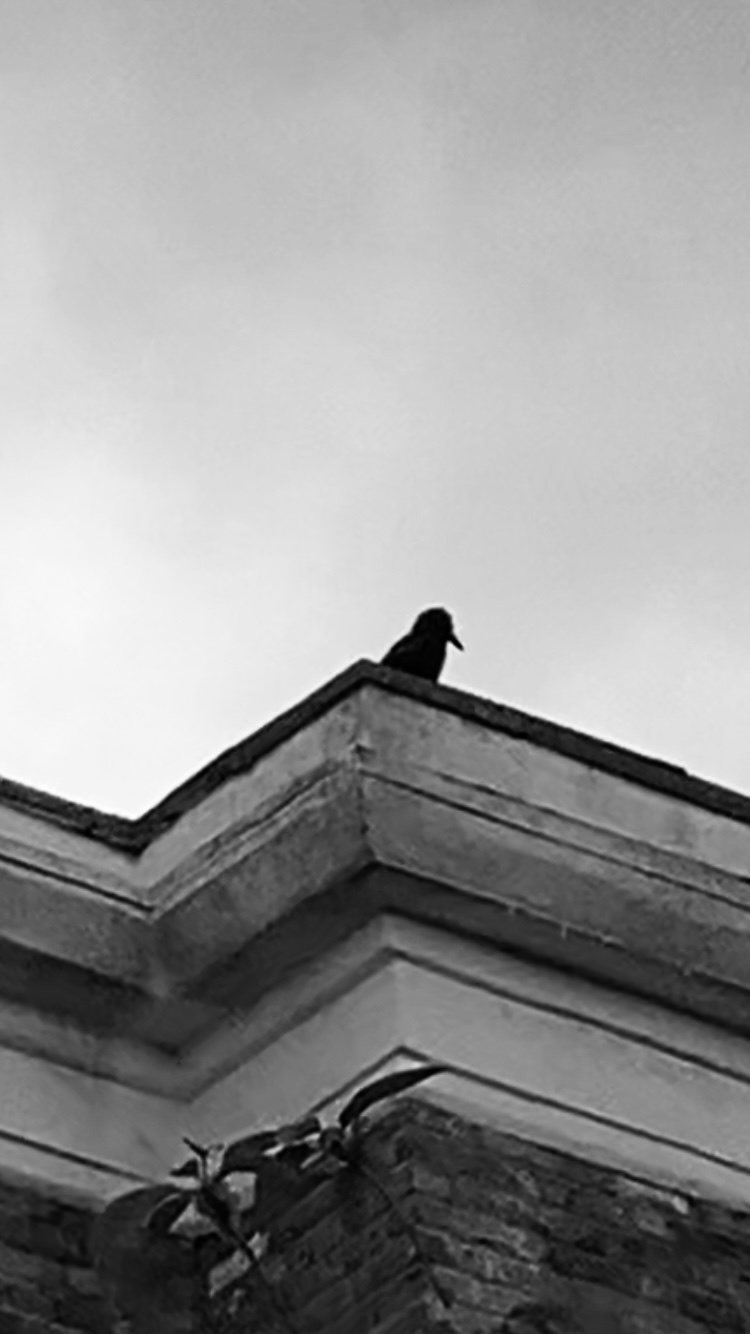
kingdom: Animalia
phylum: Chordata
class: Aves
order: Passeriformes
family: Corvidae
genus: Corvus
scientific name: Corvus corone
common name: Carrion crow
